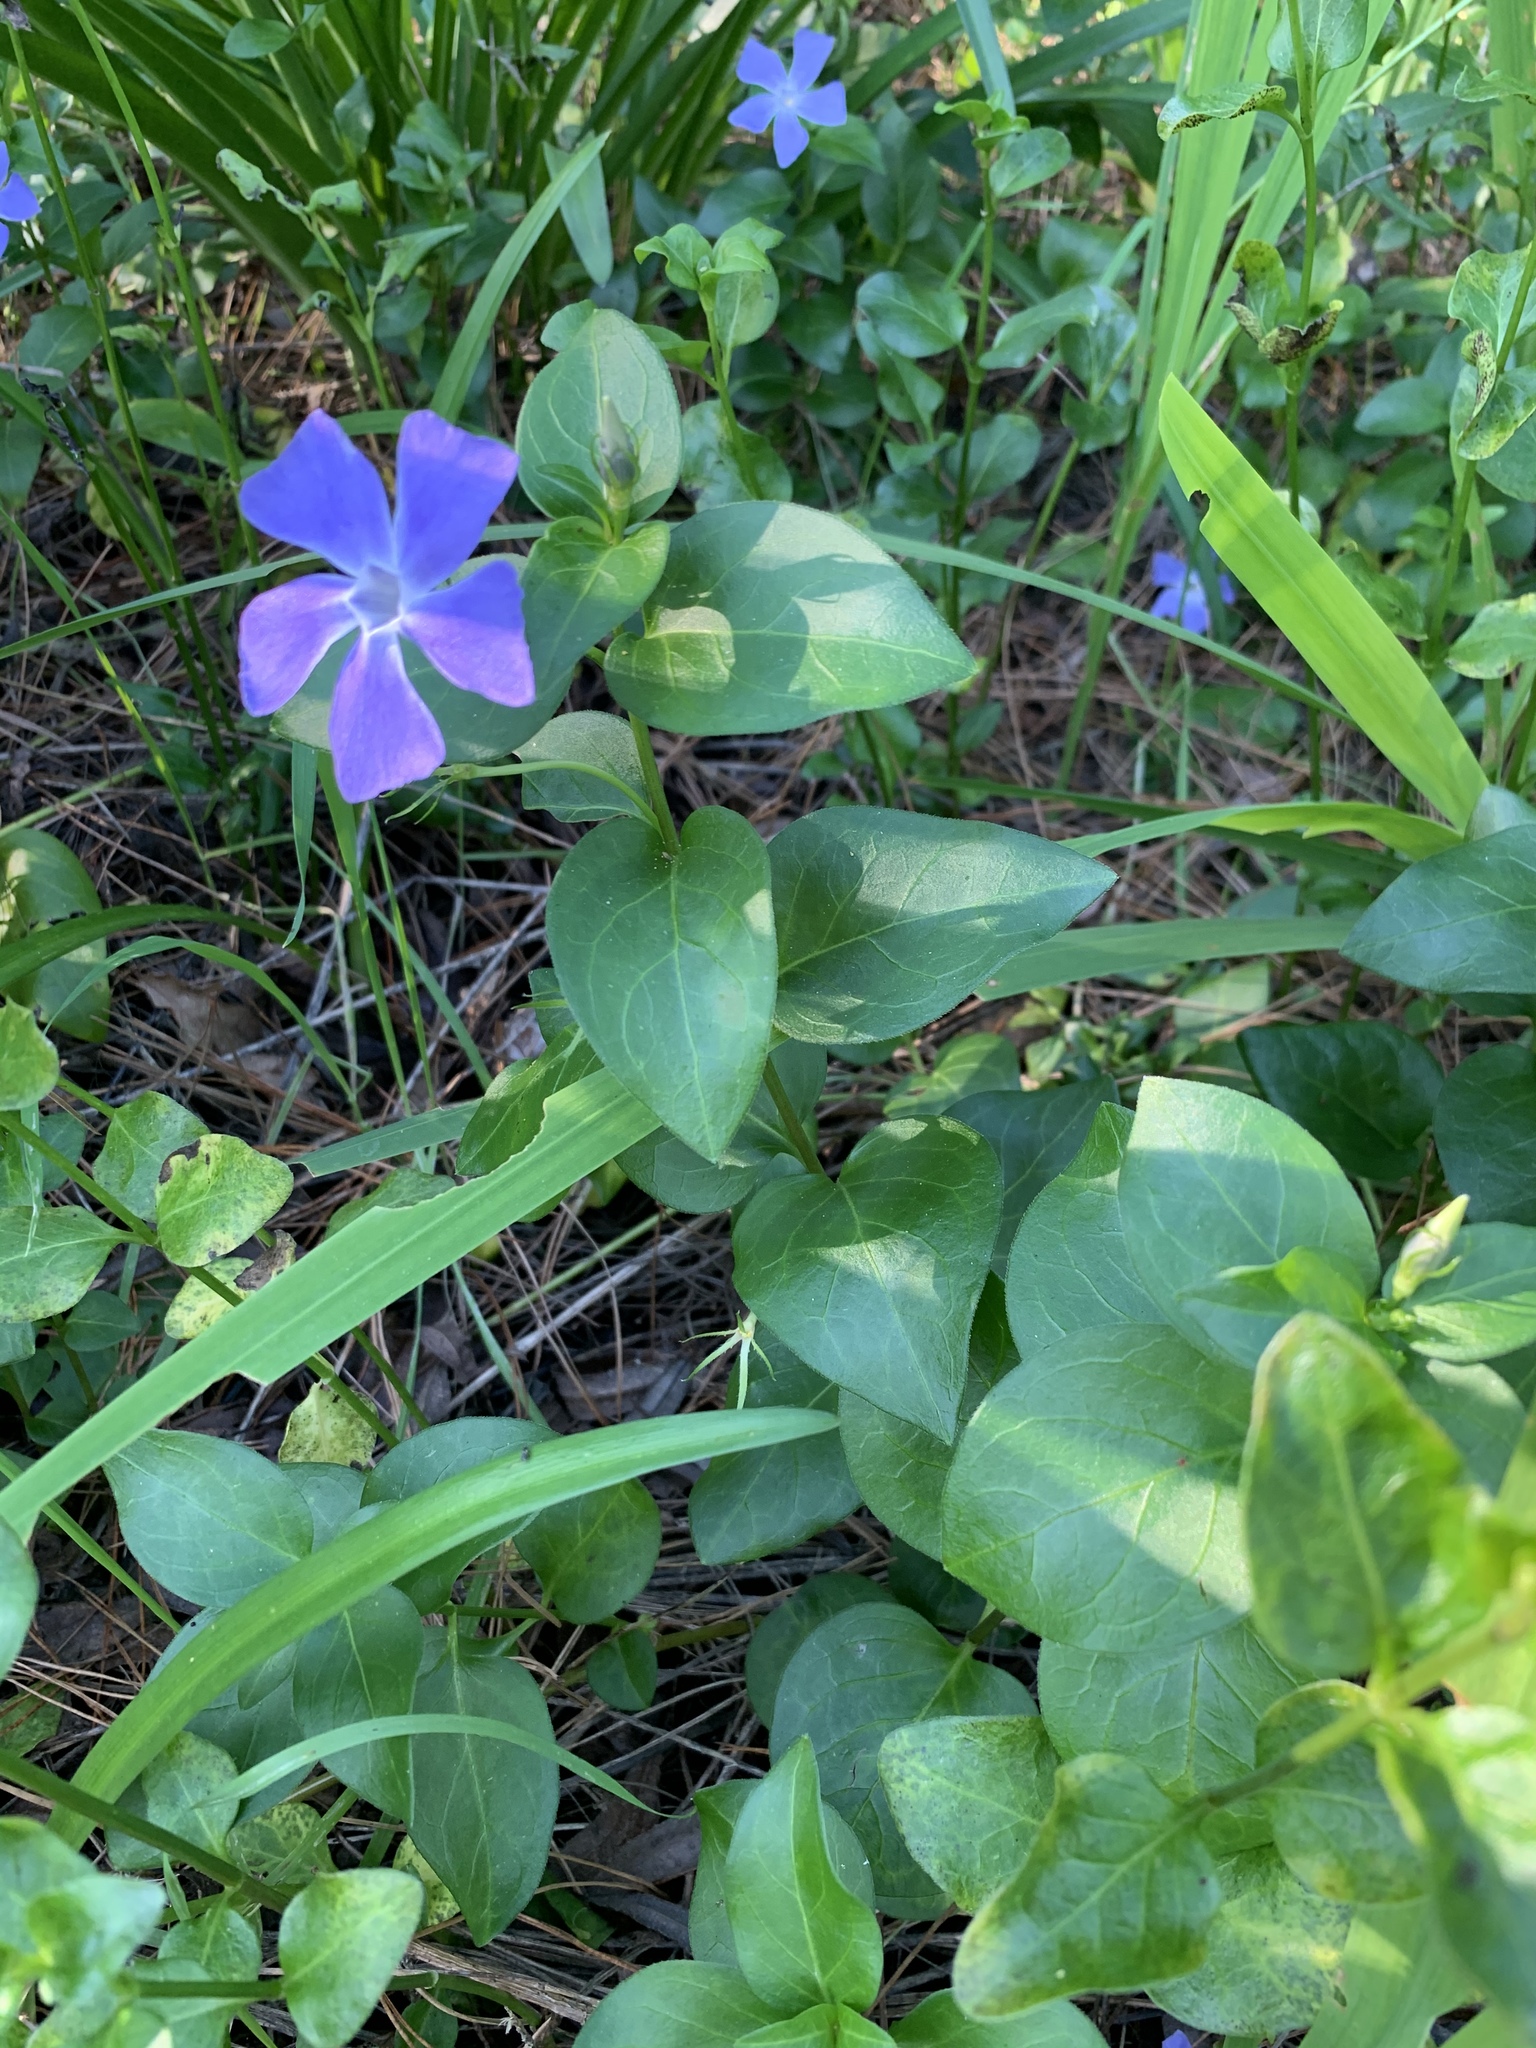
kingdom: Plantae
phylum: Tracheophyta
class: Magnoliopsida
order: Gentianales
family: Apocynaceae
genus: Vinca
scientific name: Vinca major
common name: Greater periwinkle
